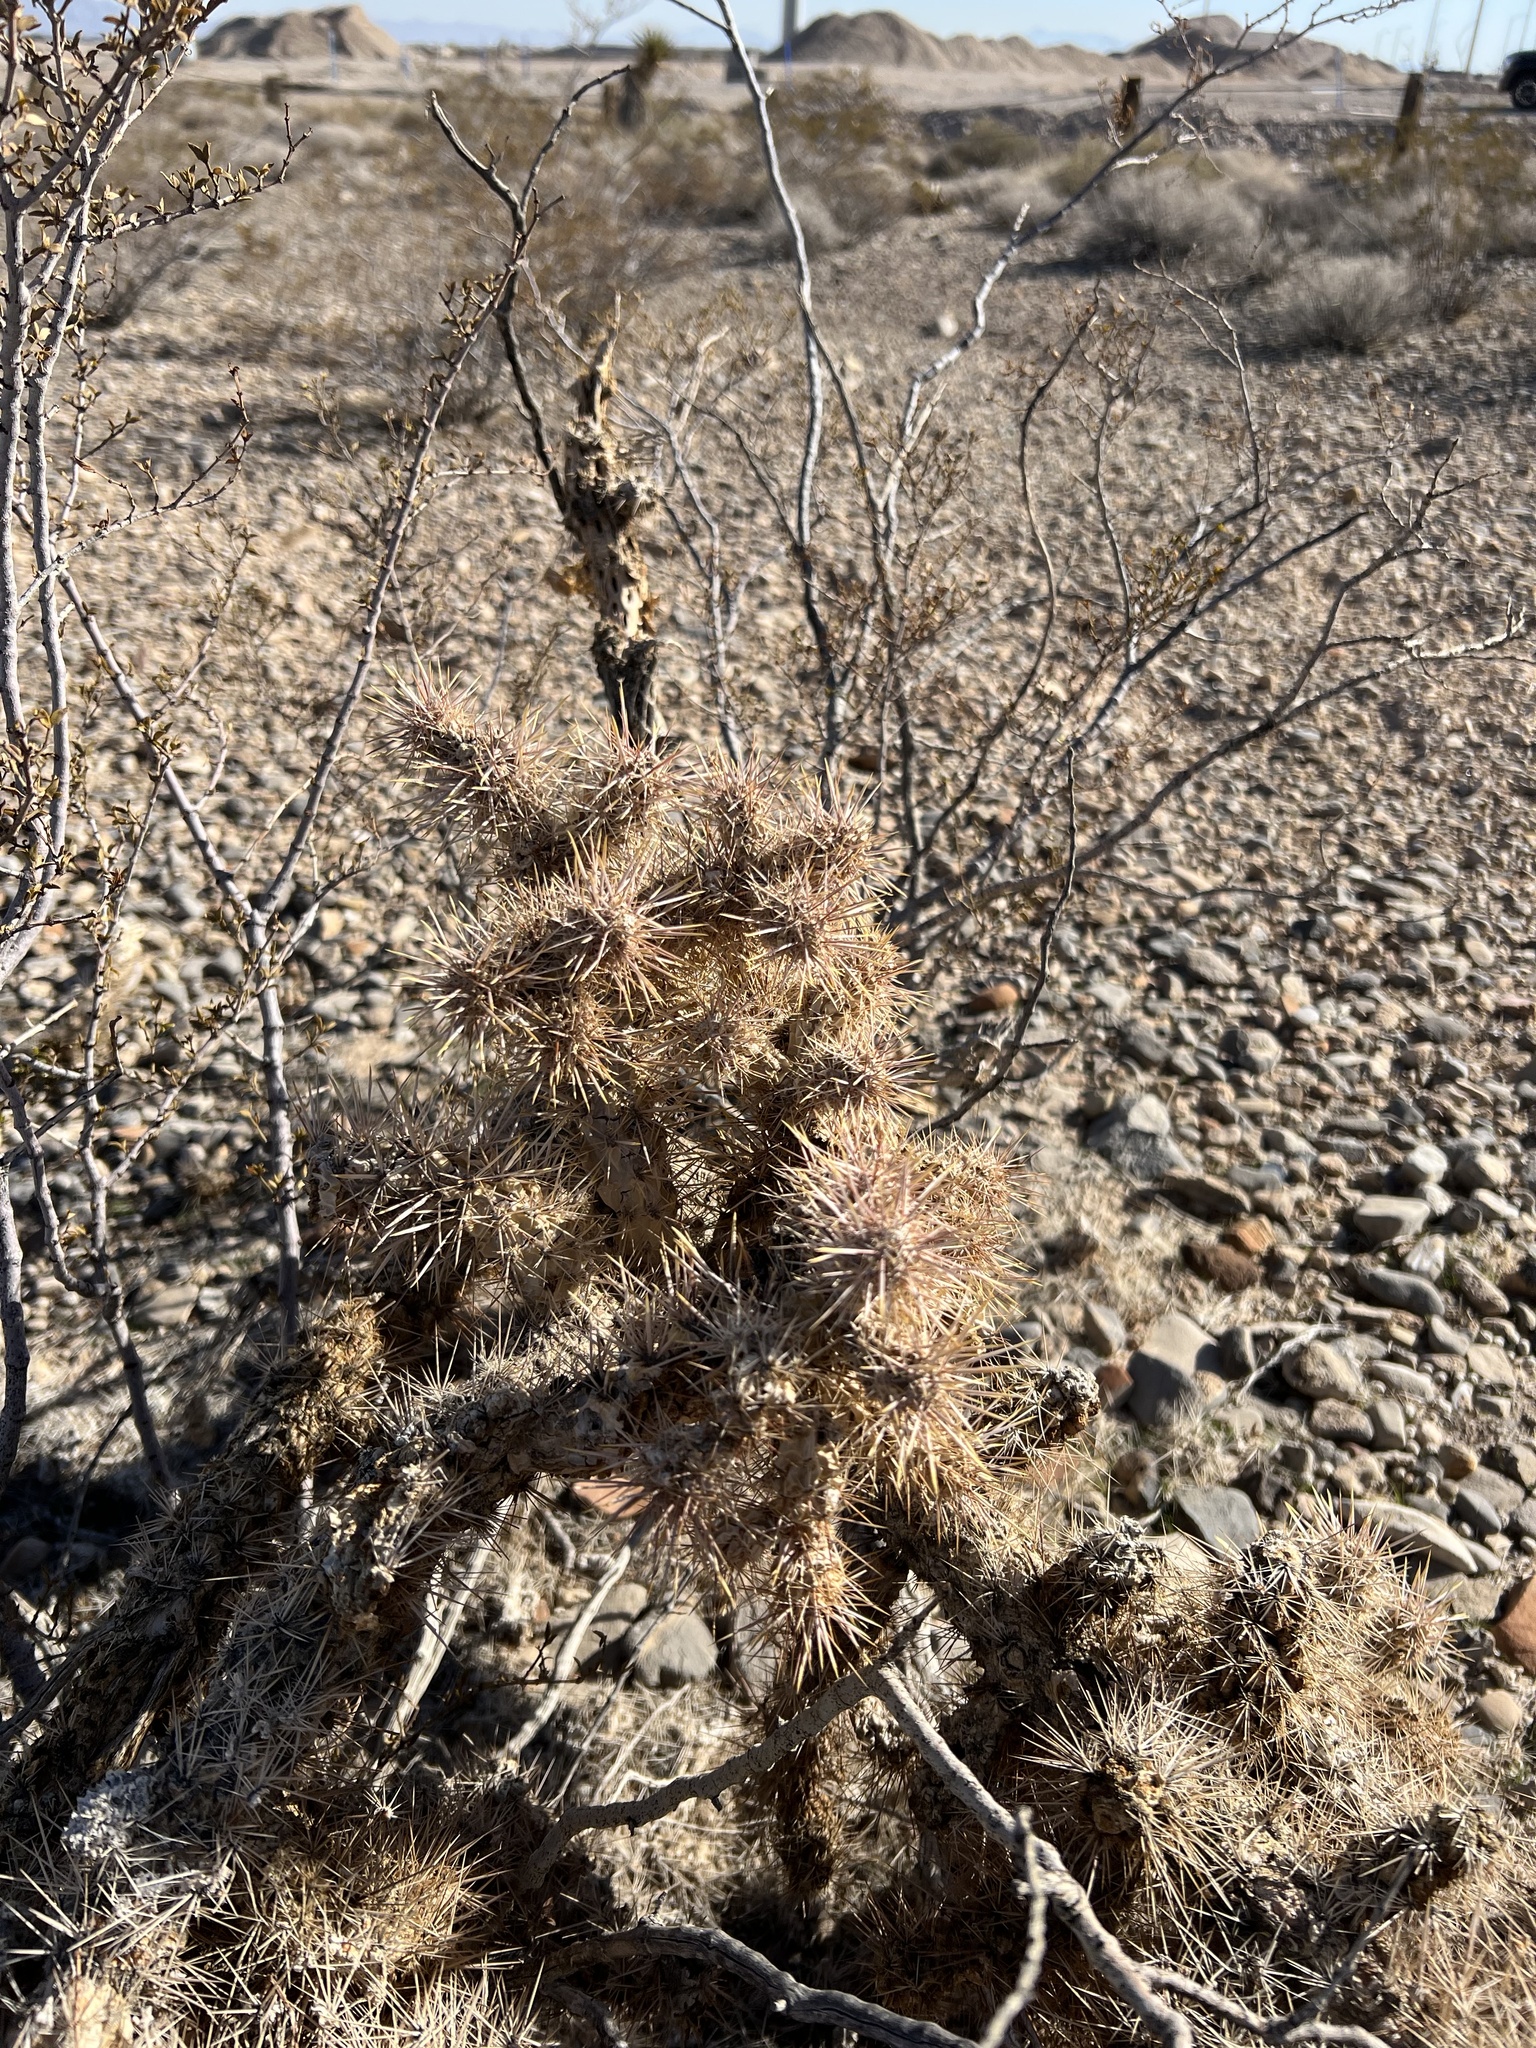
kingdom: Plantae
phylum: Tracheophyta
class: Magnoliopsida
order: Caryophyllales
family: Cactaceae
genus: Cylindropuntia
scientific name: Cylindropuntia echinocarpa
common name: Ground cholla
